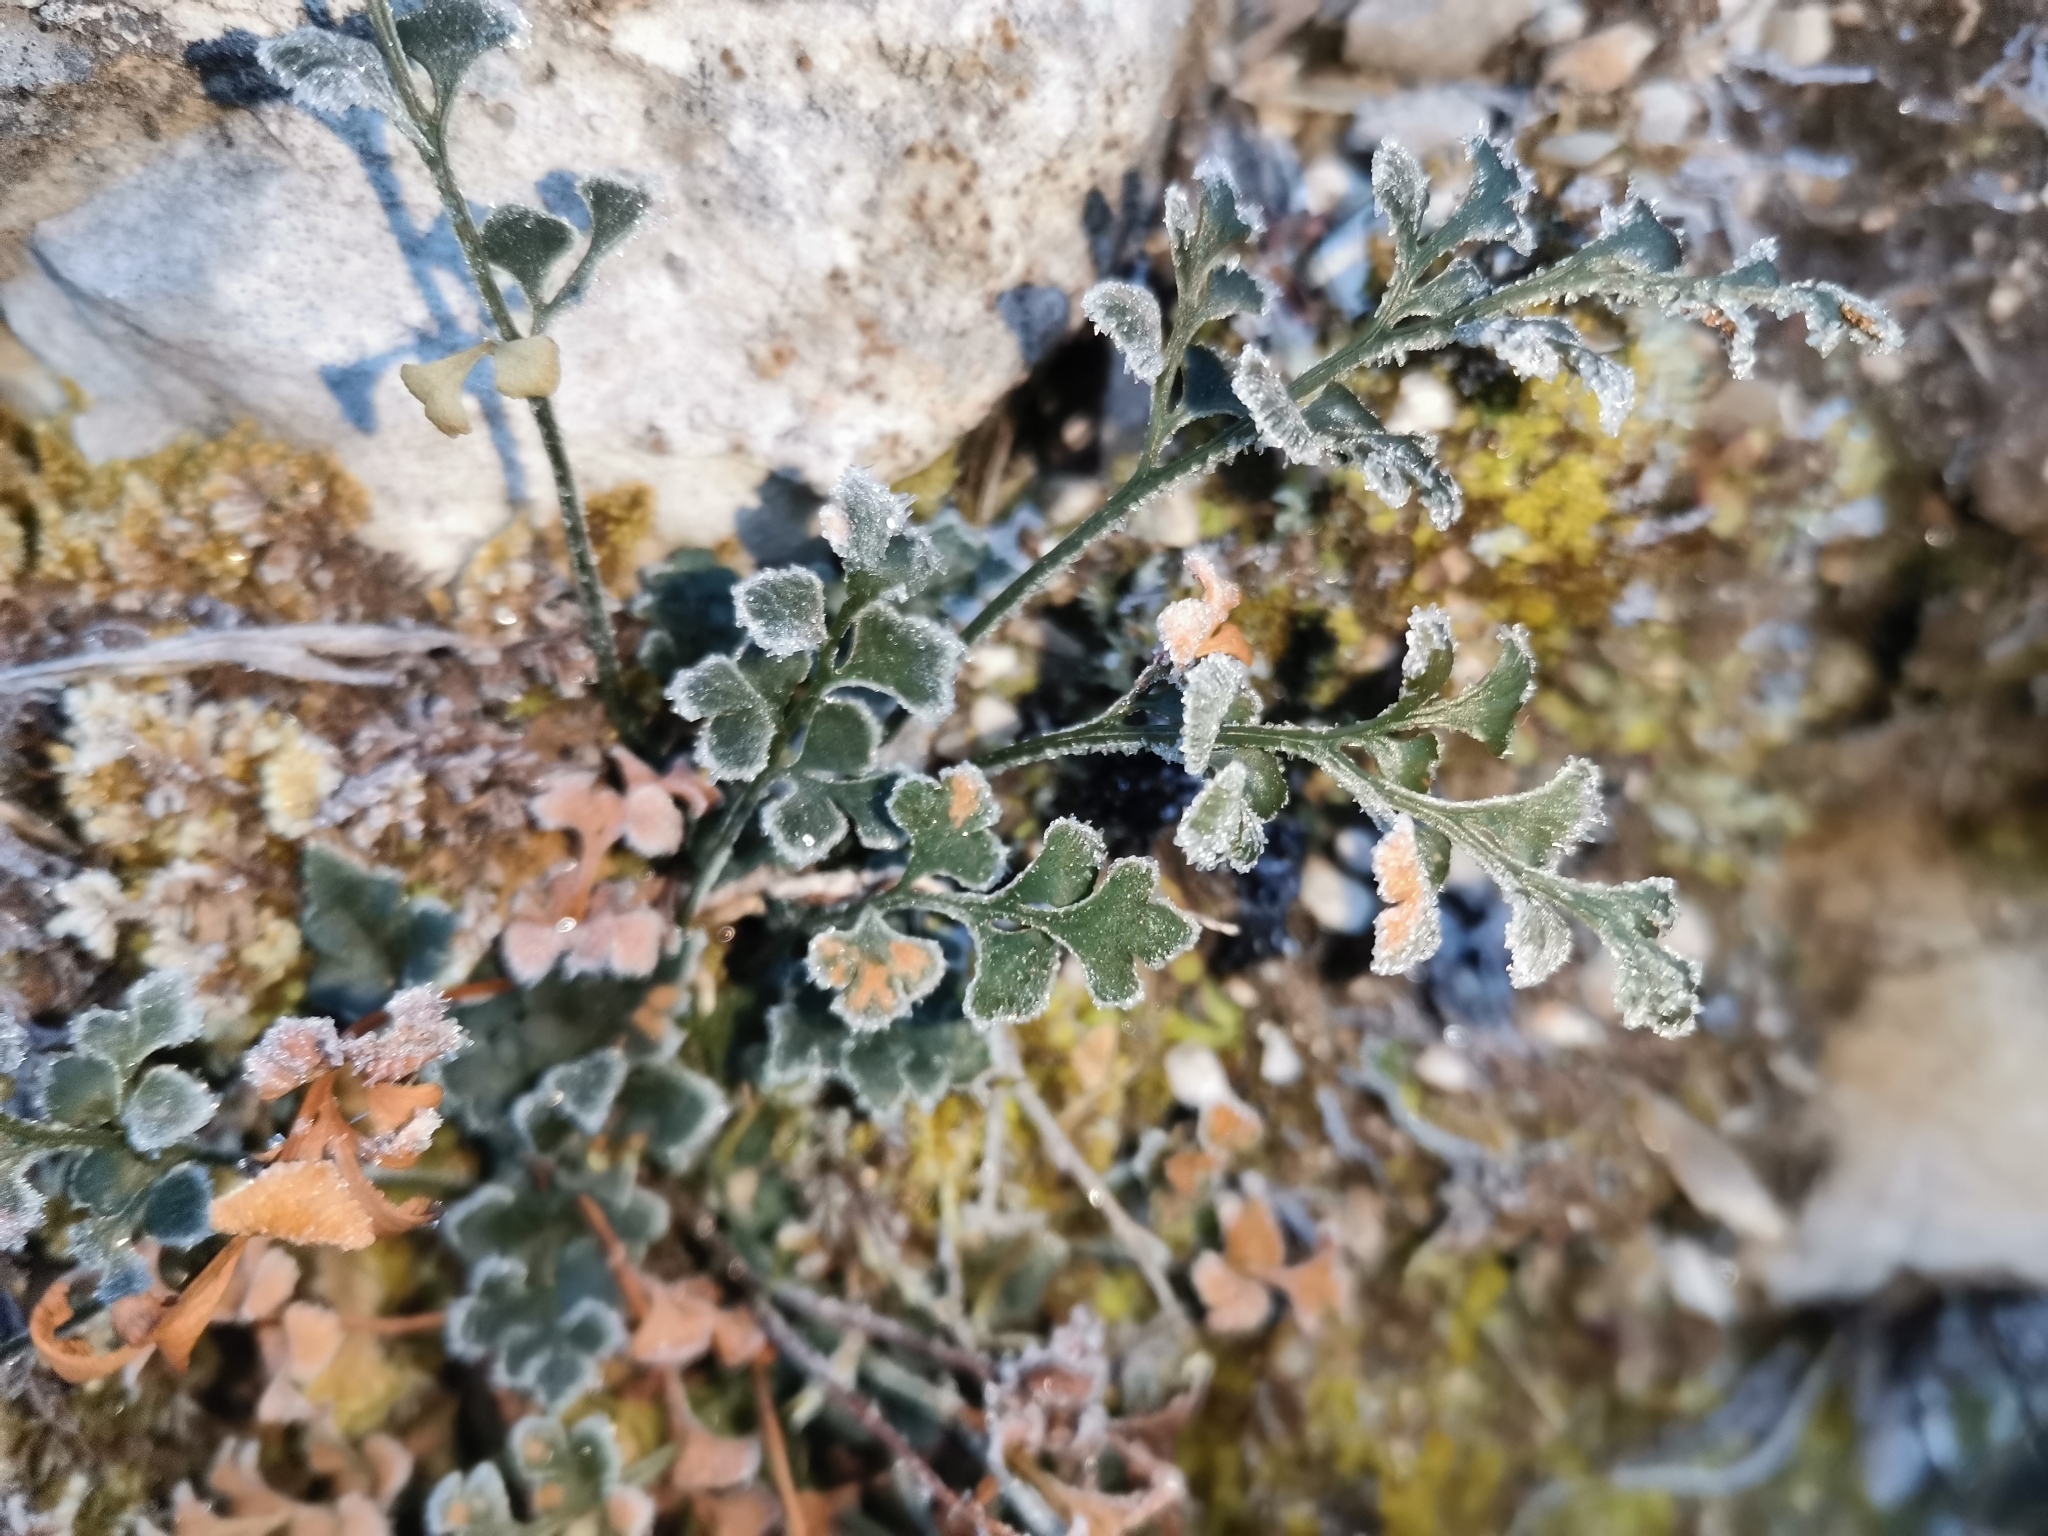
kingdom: Plantae
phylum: Tracheophyta
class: Polypodiopsida
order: Polypodiales
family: Aspleniaceae
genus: Asplenium
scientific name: Asplenium ruta-muraria
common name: Wall-rue
